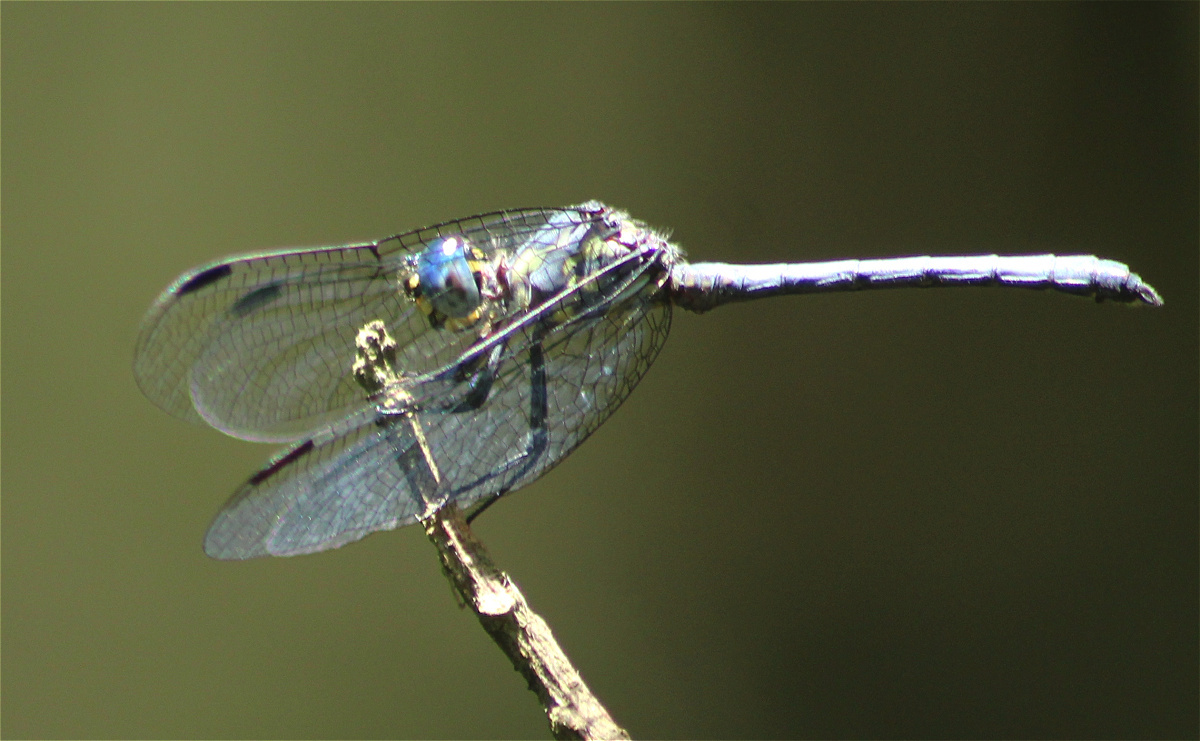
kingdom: Animalia
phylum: Arthropoda
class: Insecta
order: Odonata
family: Libellulidae
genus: Tetrathemis
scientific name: Tetrathemis polleni
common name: Black-splashed elf
